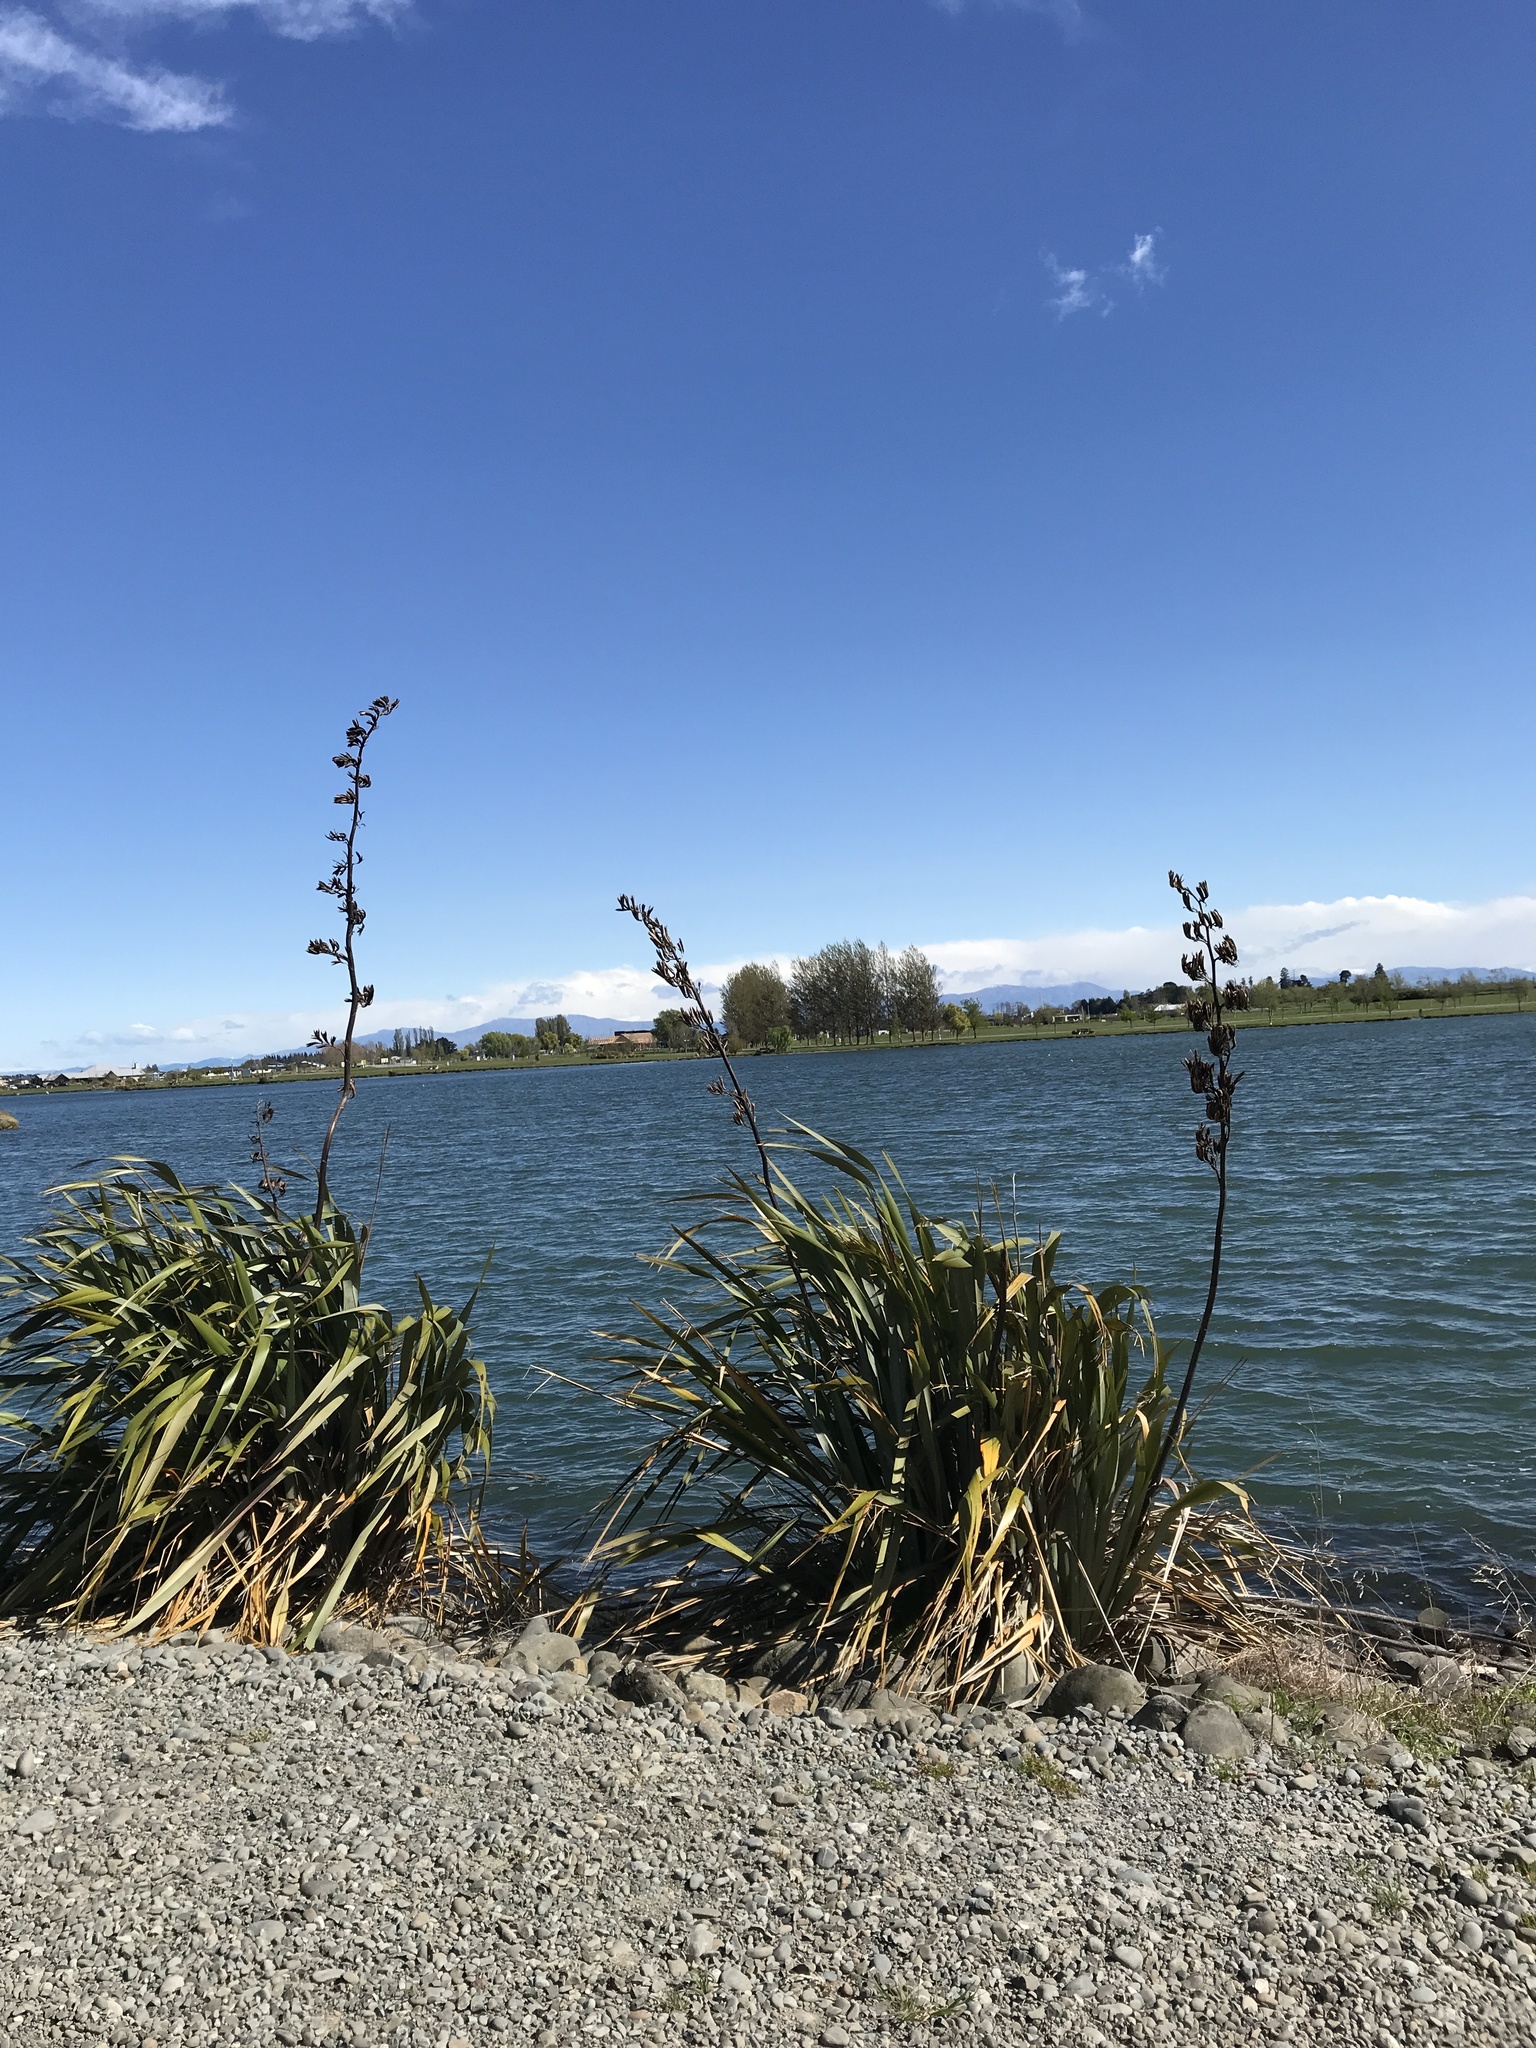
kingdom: Plantae
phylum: Tracheophyta
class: Liliopsida
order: Asparagales
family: Asphodelaceae
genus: Phormium
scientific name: Phormium tenax
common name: New zealand flax
